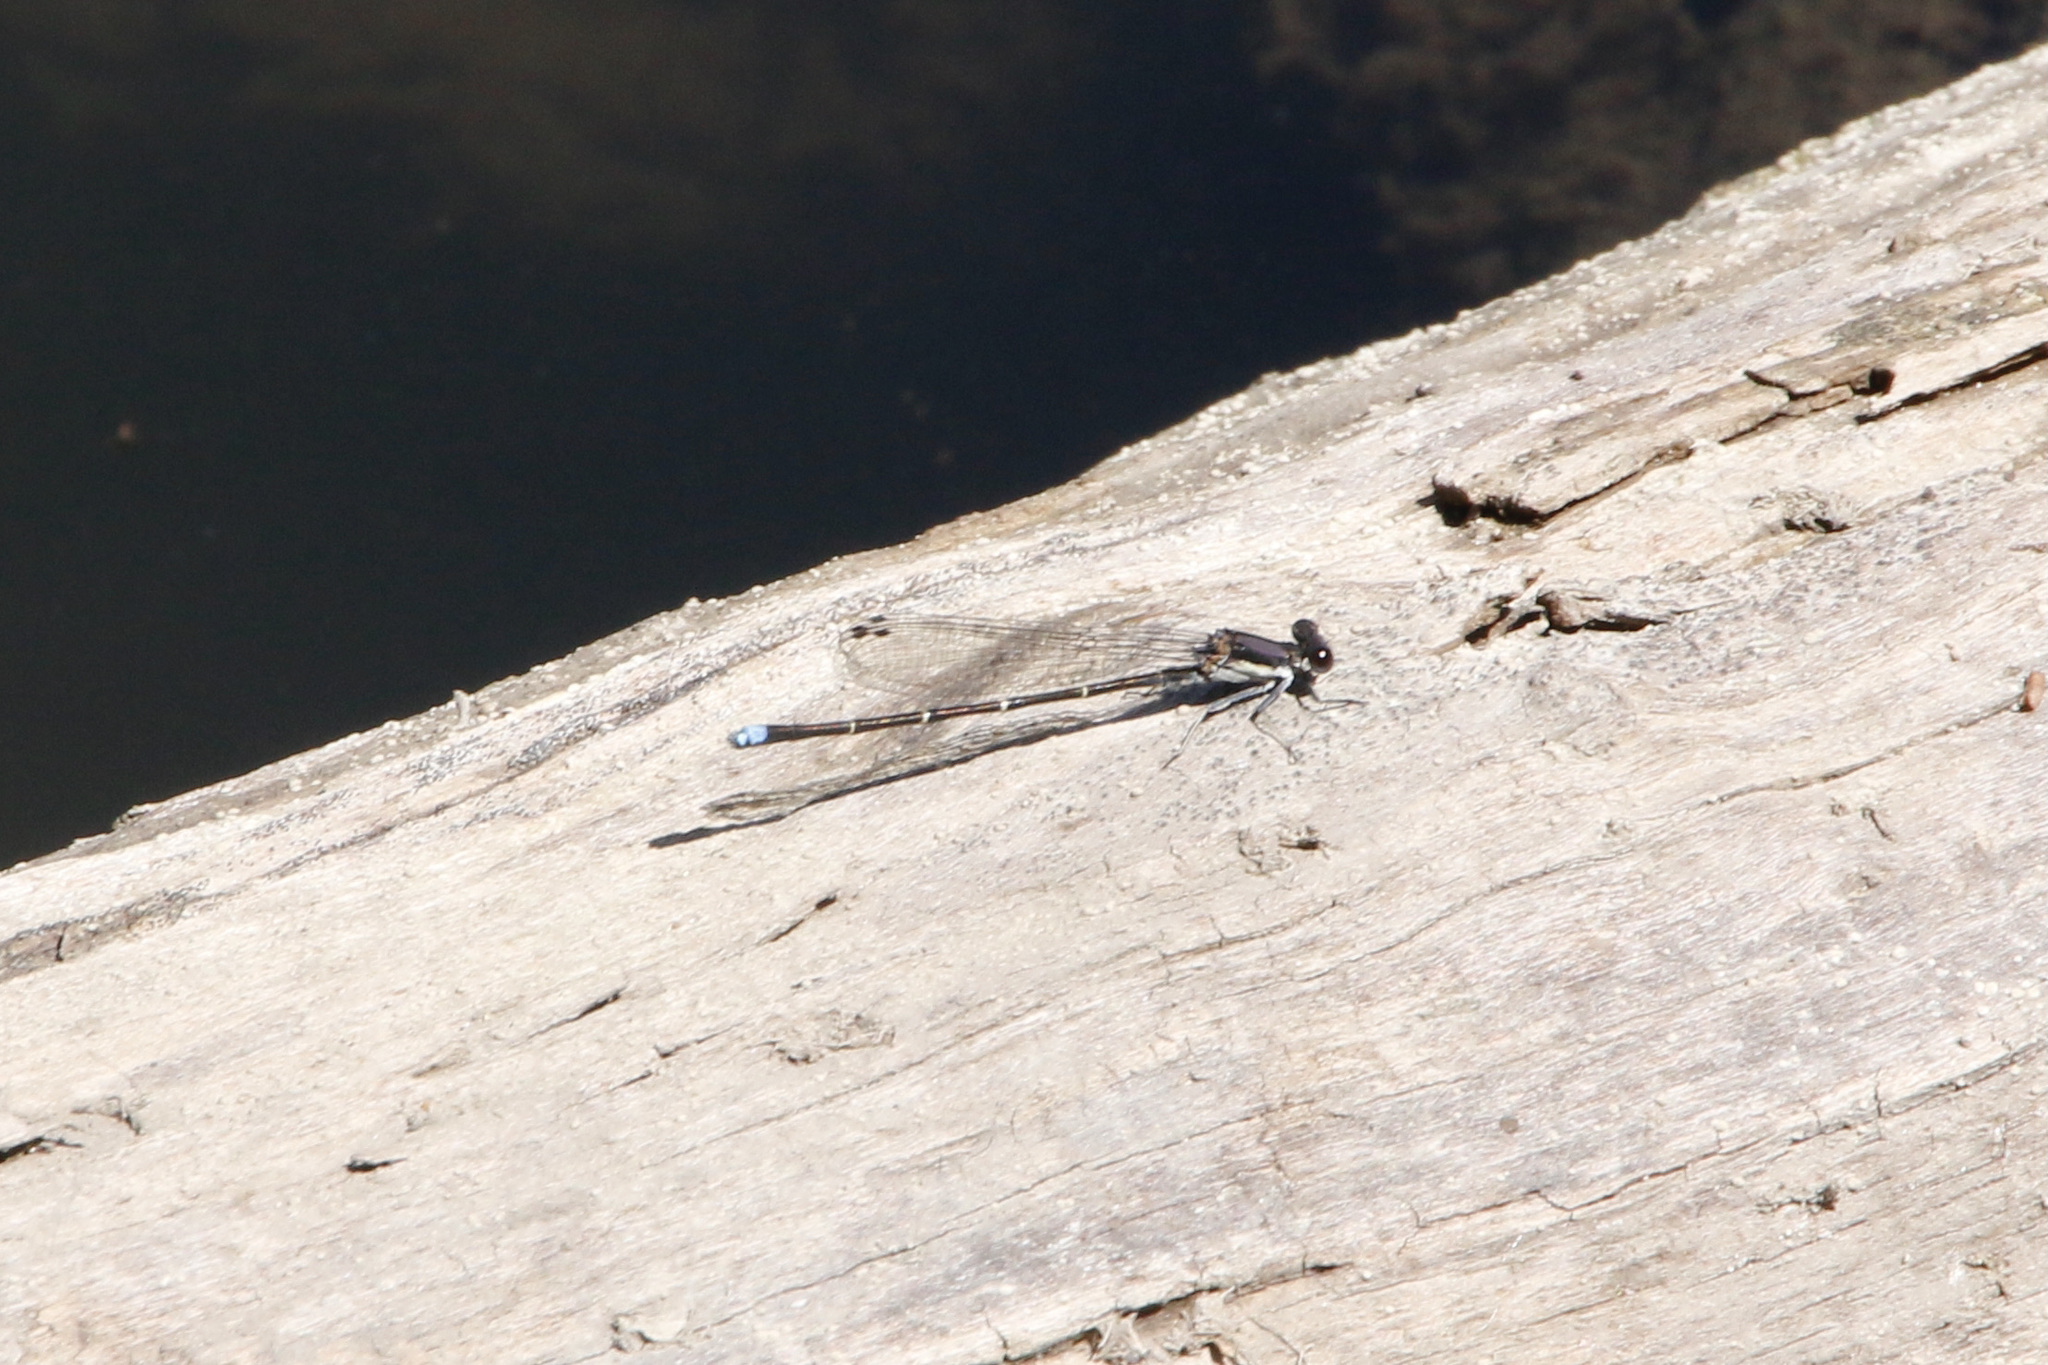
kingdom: Animalia
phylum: Arthropoda
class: Insecta
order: Odonata
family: Coenagrionidae
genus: Argia
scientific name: Argia tibialis
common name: Blue-tipped dancer
